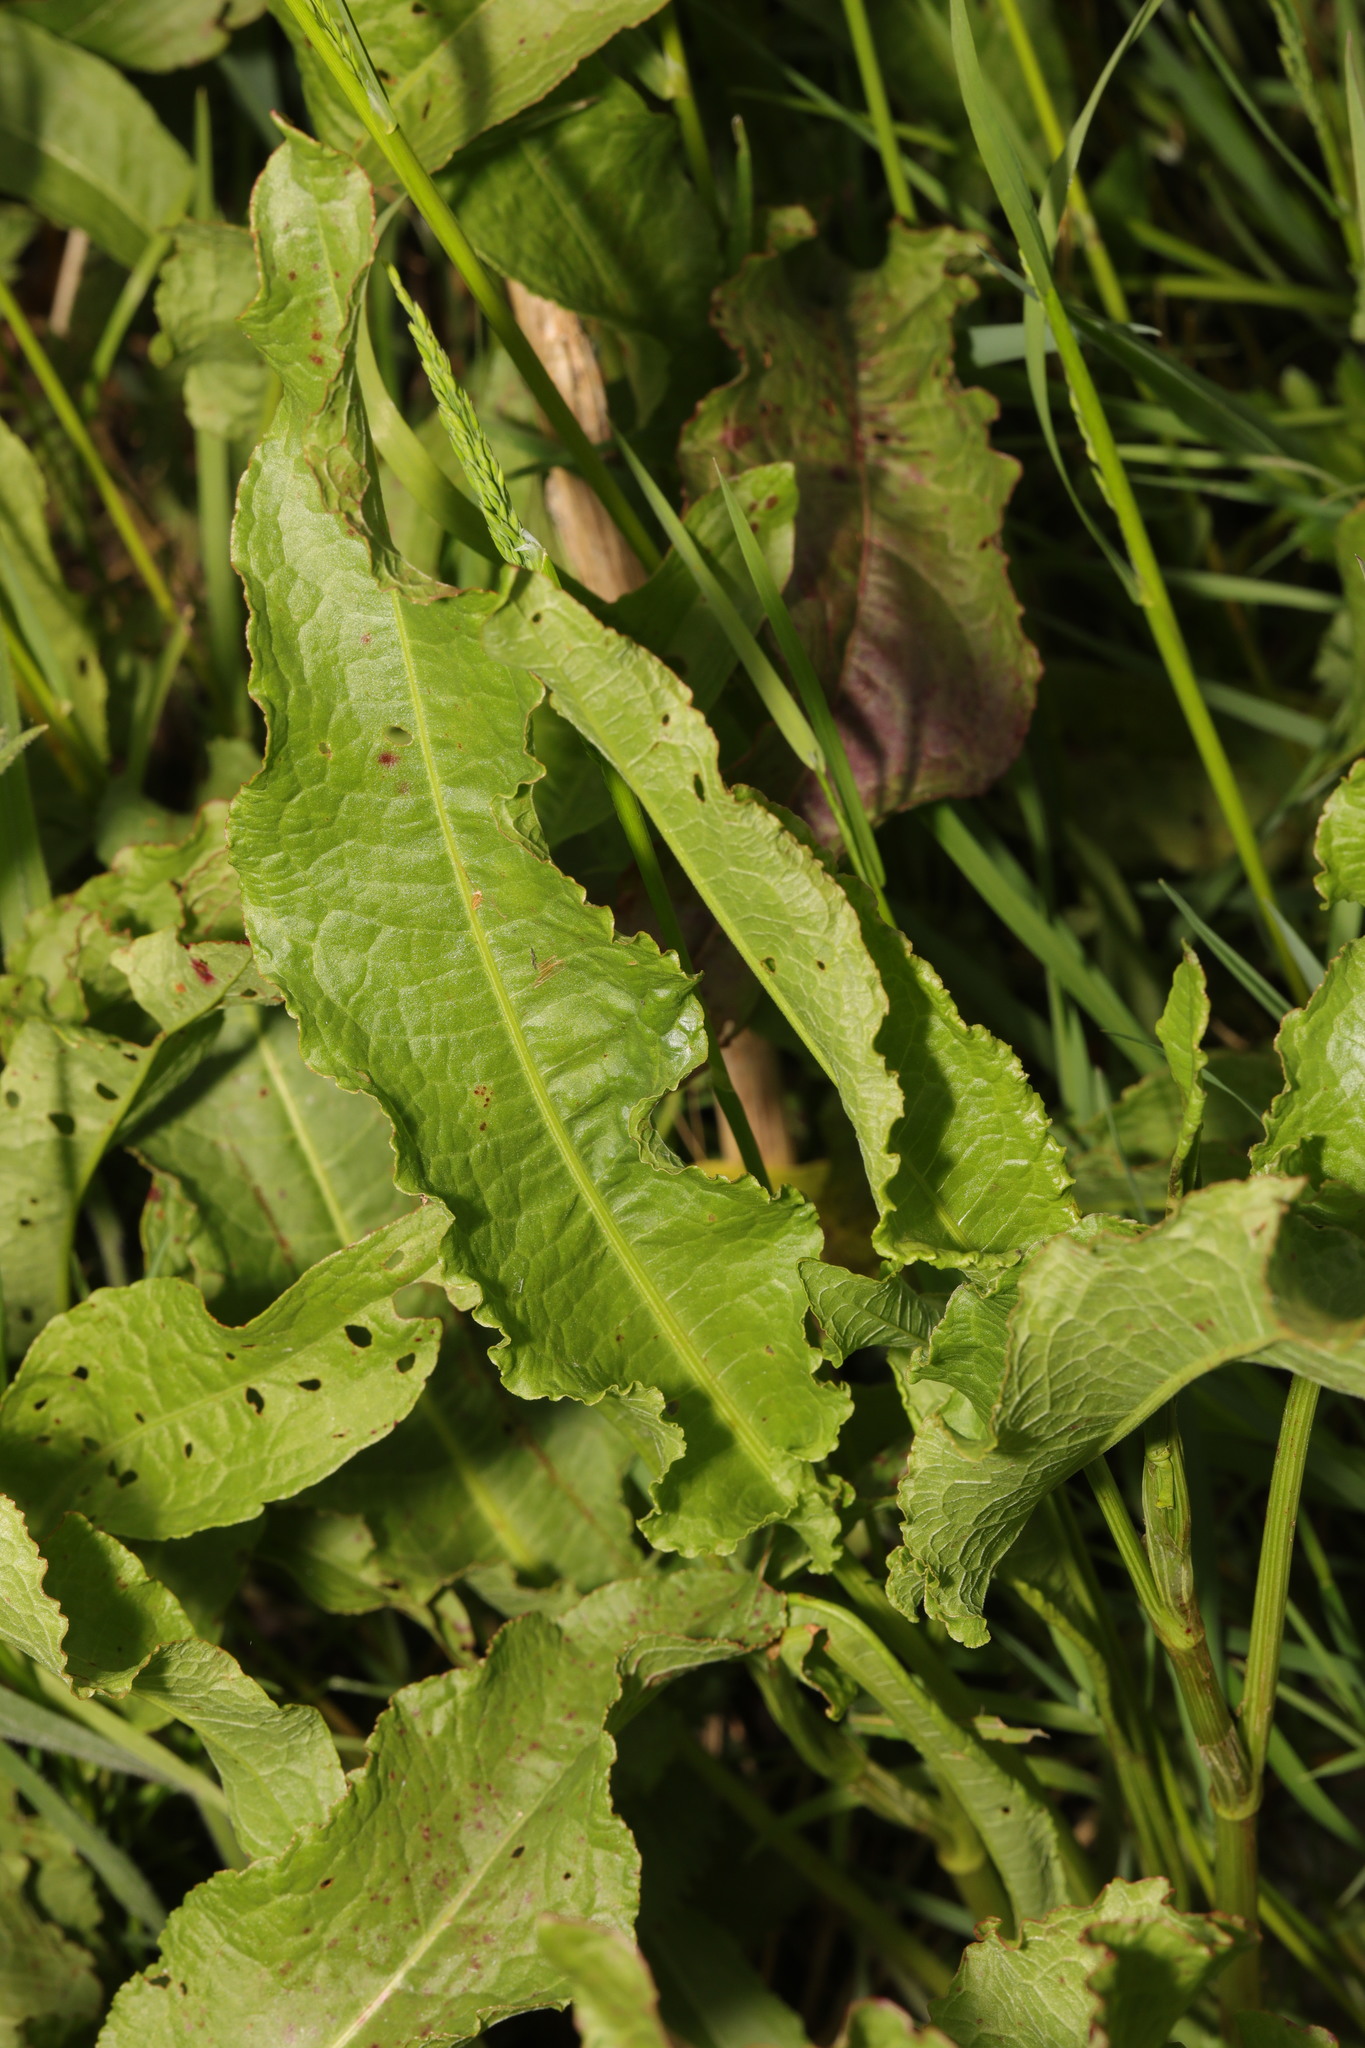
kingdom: Plantae
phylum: Tracheophyta
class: Magnoliopsida
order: Caryophyllales
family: Polygonaceae
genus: Rumex
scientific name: Rumex crispus
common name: Curled dock
